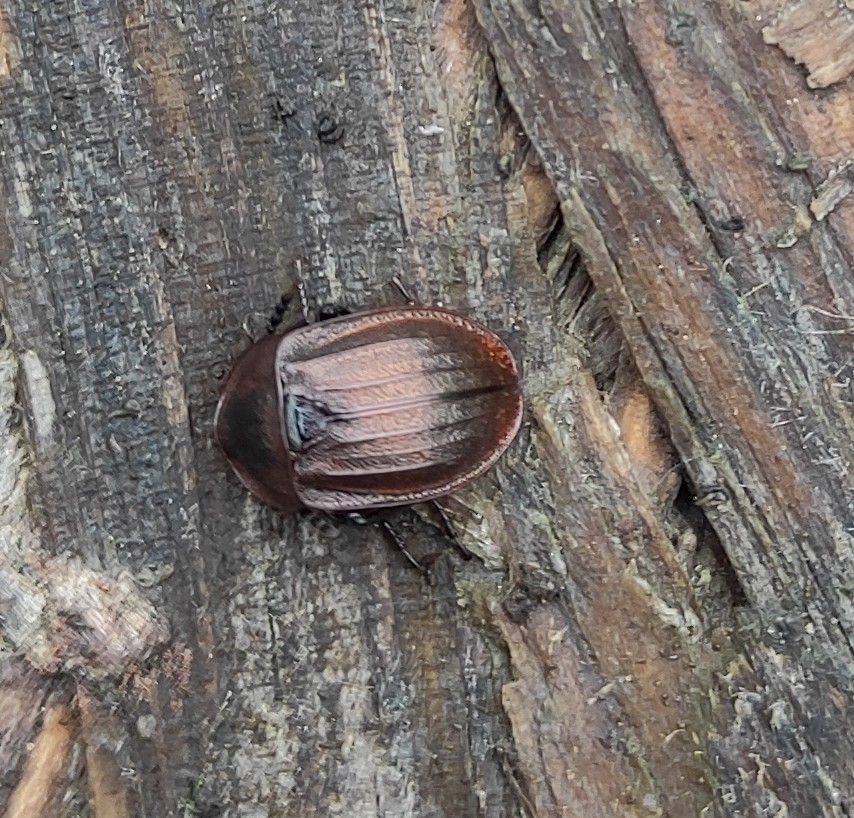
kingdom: Animalia
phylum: Arthropoda
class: Insecta
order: Coleoptera
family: Staphylinidae
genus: Silpha
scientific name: Silpha atrata
